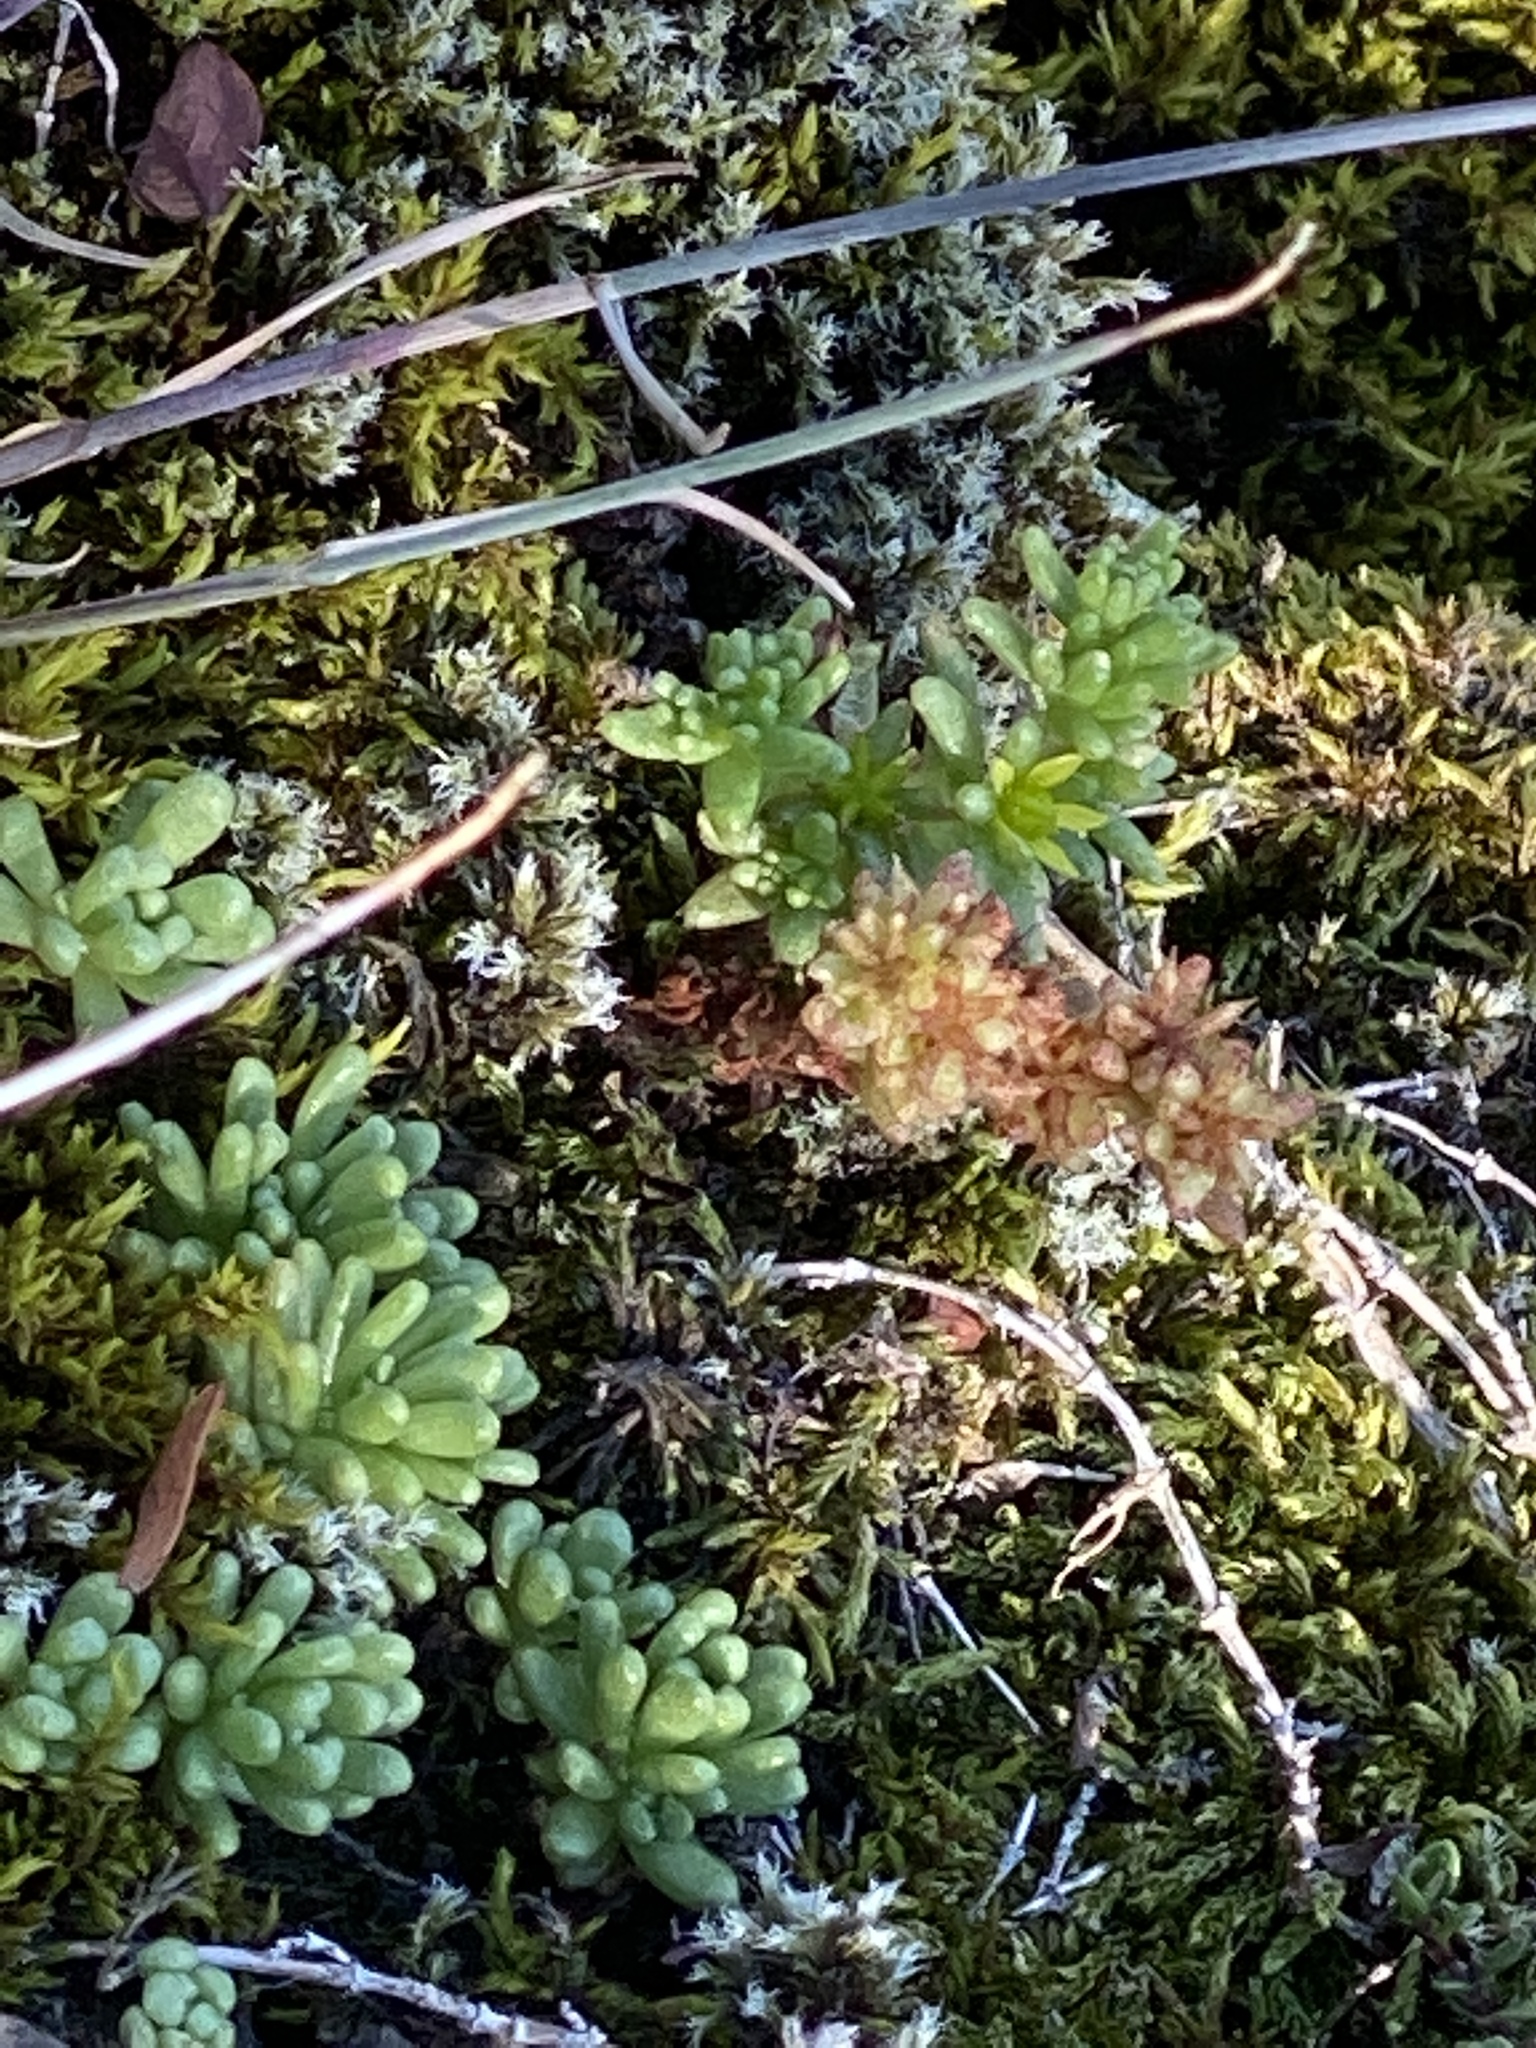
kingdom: Plantae
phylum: Tracheophyta
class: Magnoliopsida
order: Saxifragales
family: Crassulaceae
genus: Sedum
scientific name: Sedum annuum
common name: Annual stonecrop
